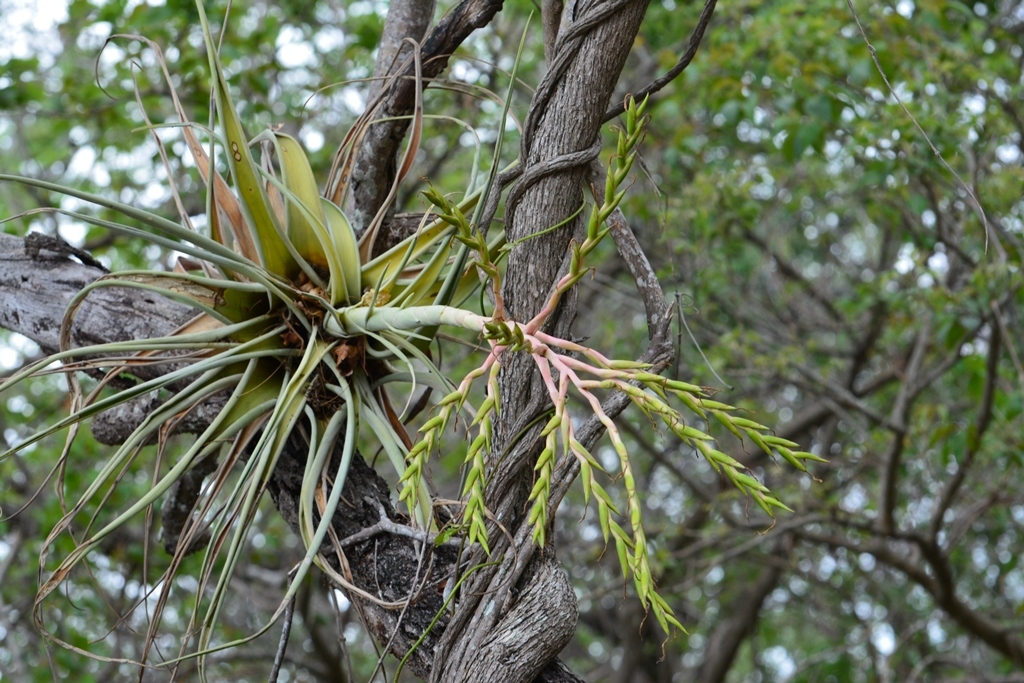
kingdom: Plantae
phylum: Tracheophyta
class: Liliopsida
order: Poales
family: Bromeliaceae
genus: Tillandsia
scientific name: Tillandsia elusiva
